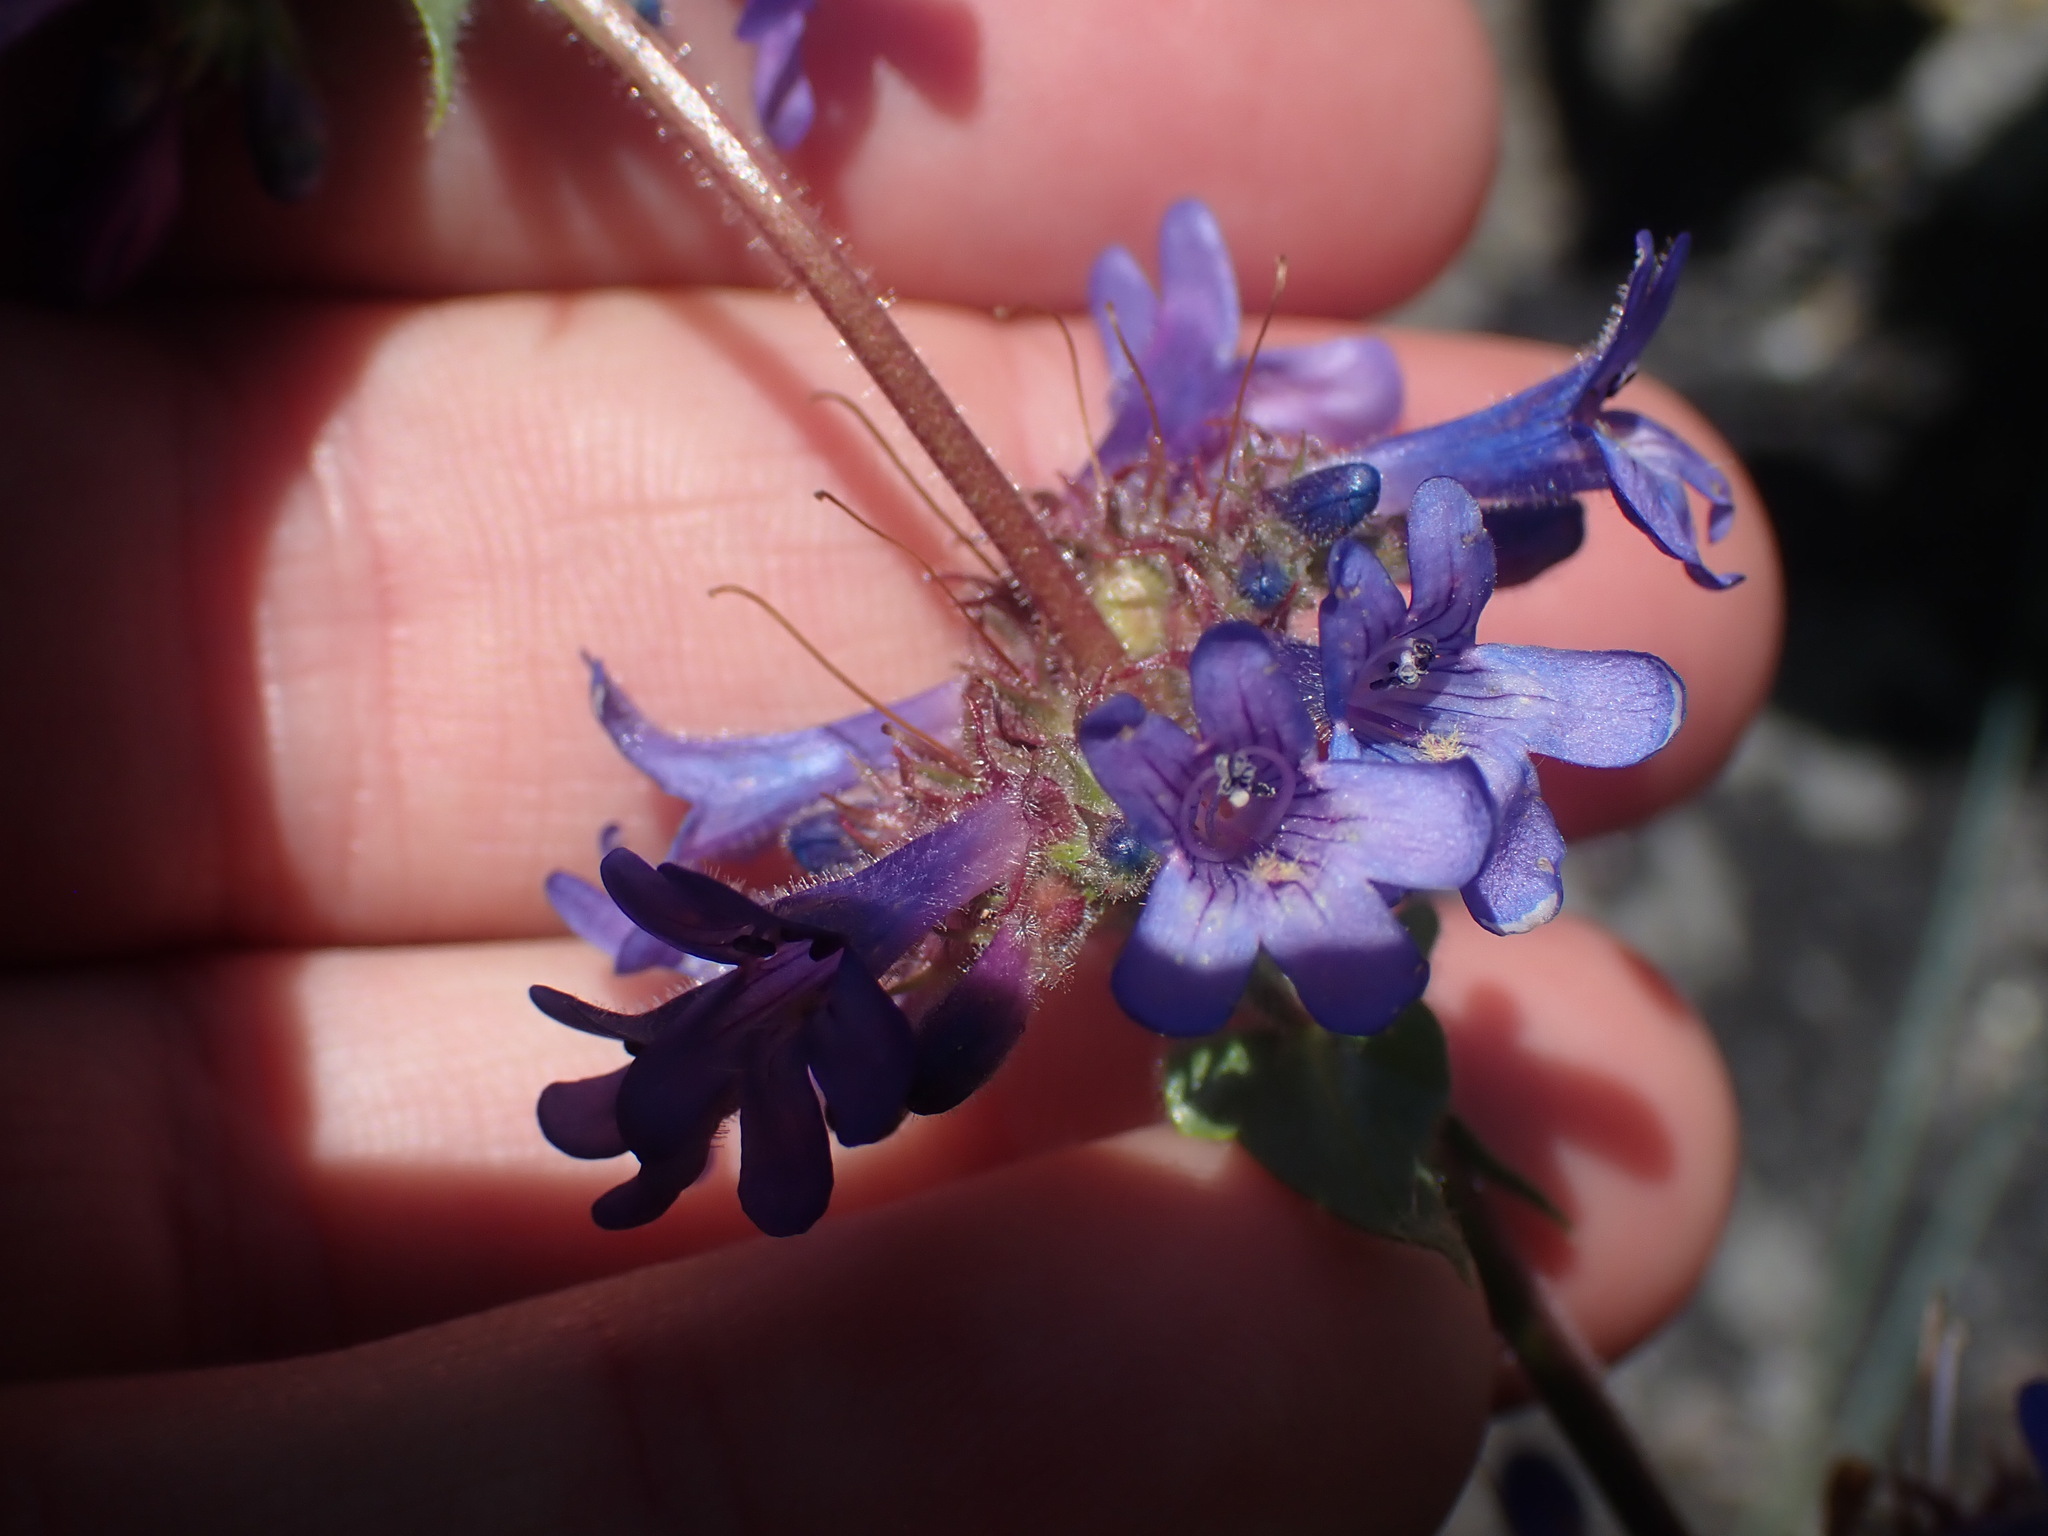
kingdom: Plantae
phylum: Tracheophyta
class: Magnoliopsida
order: Lamiales
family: Plantaginaceae
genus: Penstemon
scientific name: Penstemon pruinosus
